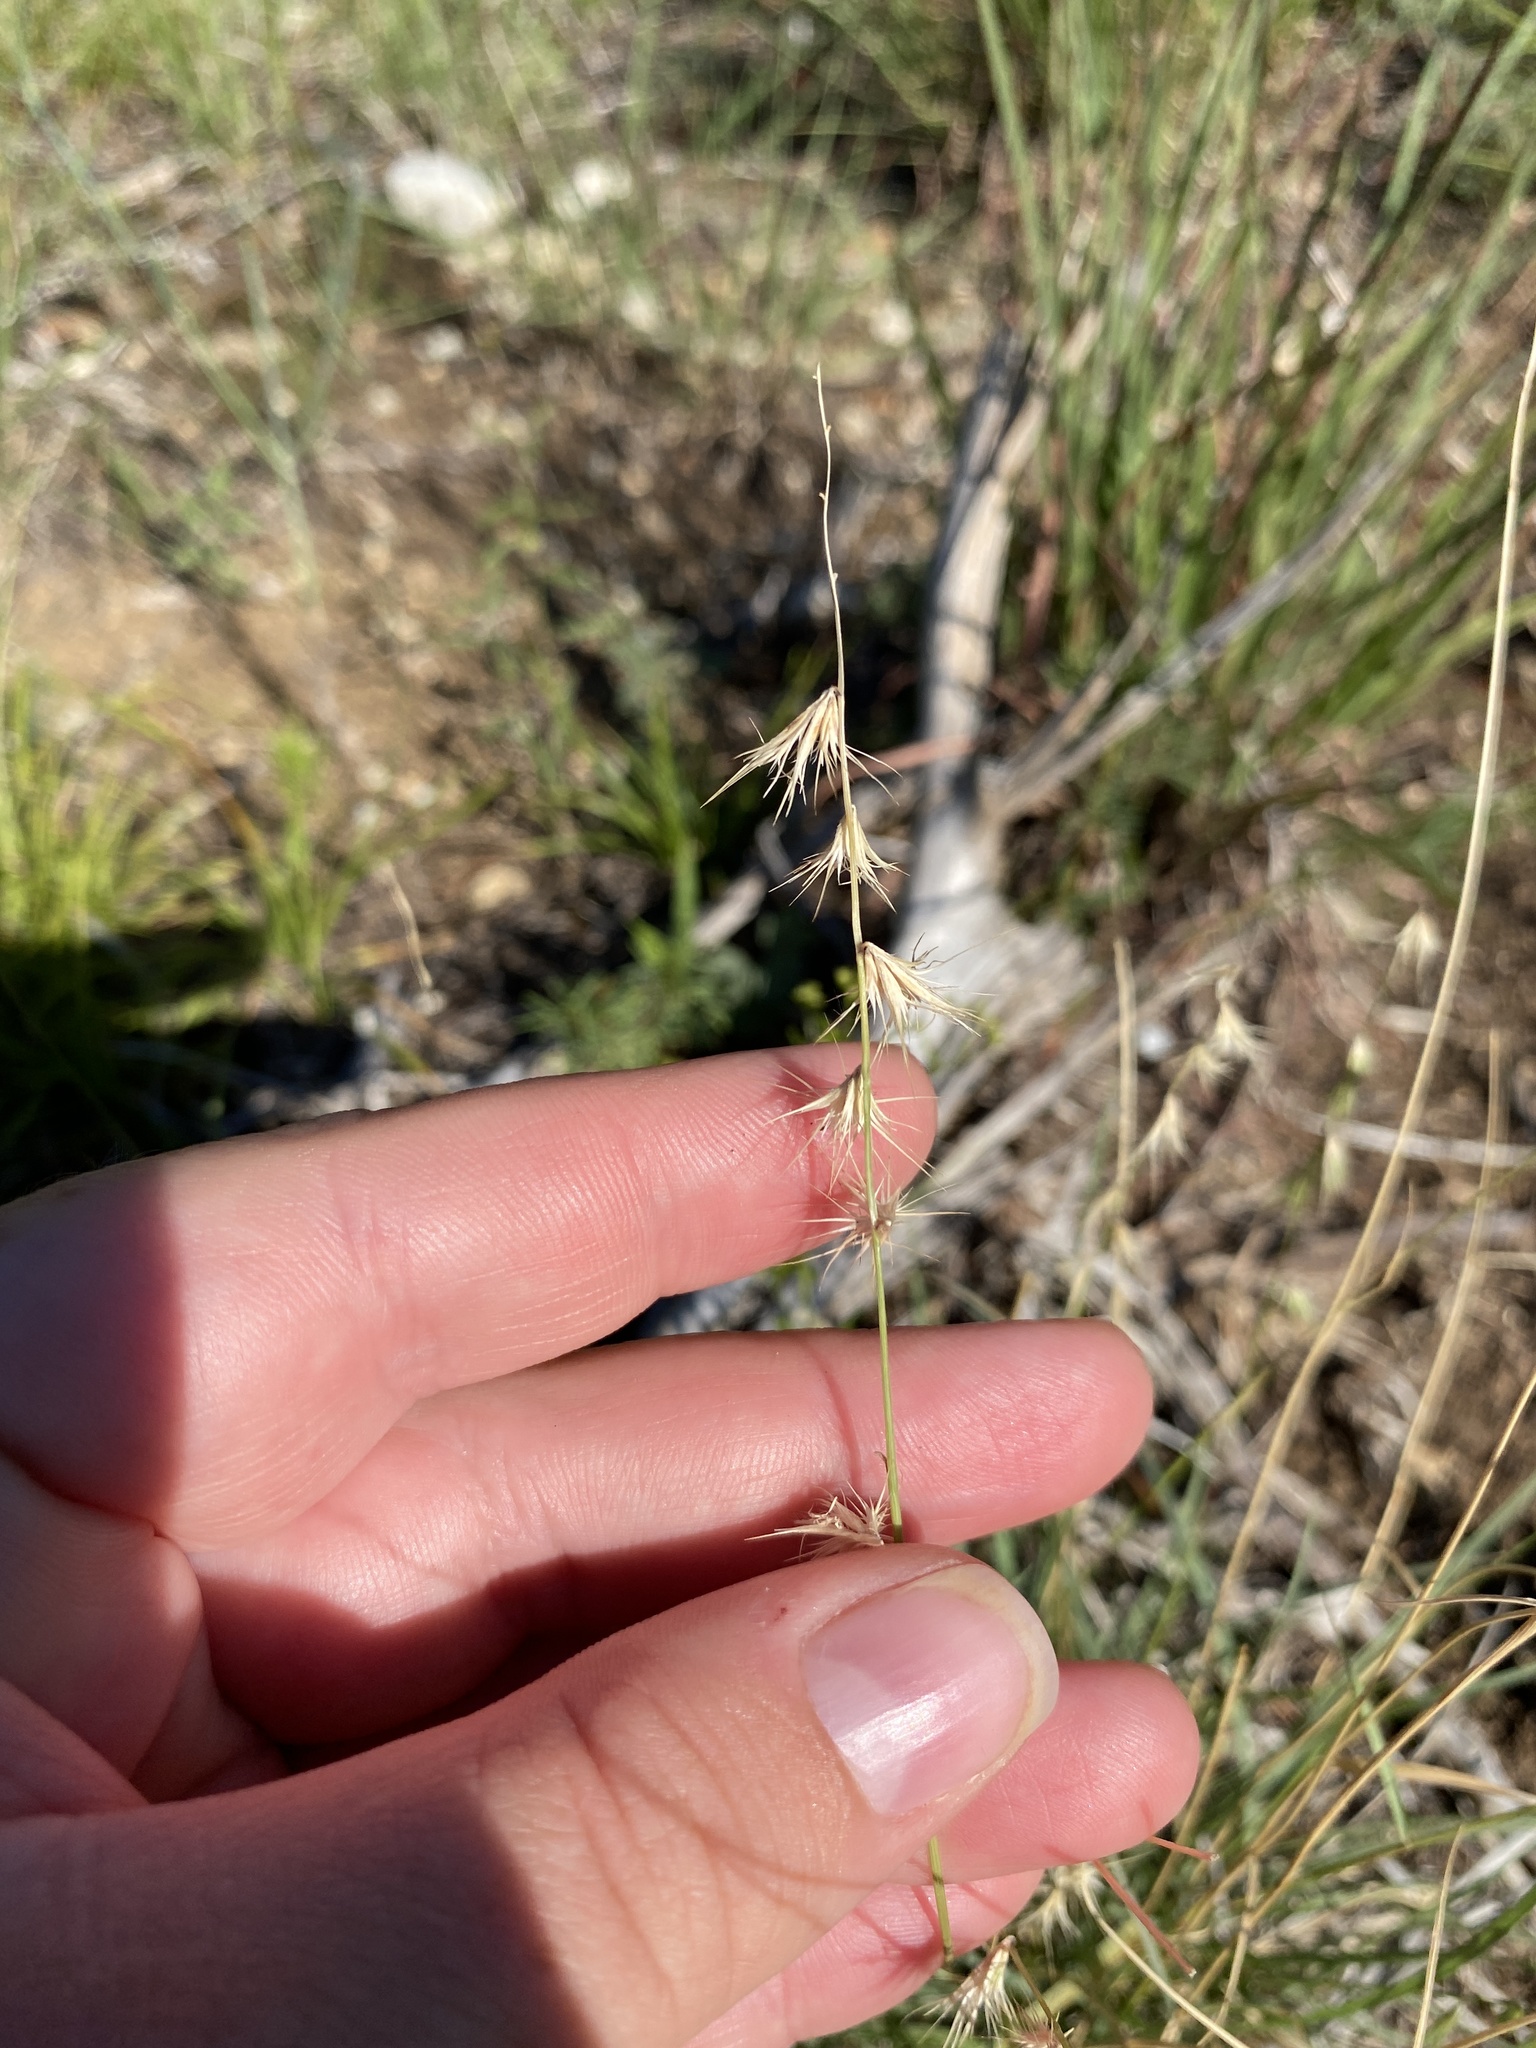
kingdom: Plantae
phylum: Tracheophyta
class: Liliopsida
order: Poales
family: Poaceae
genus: Bouteloua
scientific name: Bouteloua rigidiseta
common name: Texas grama
